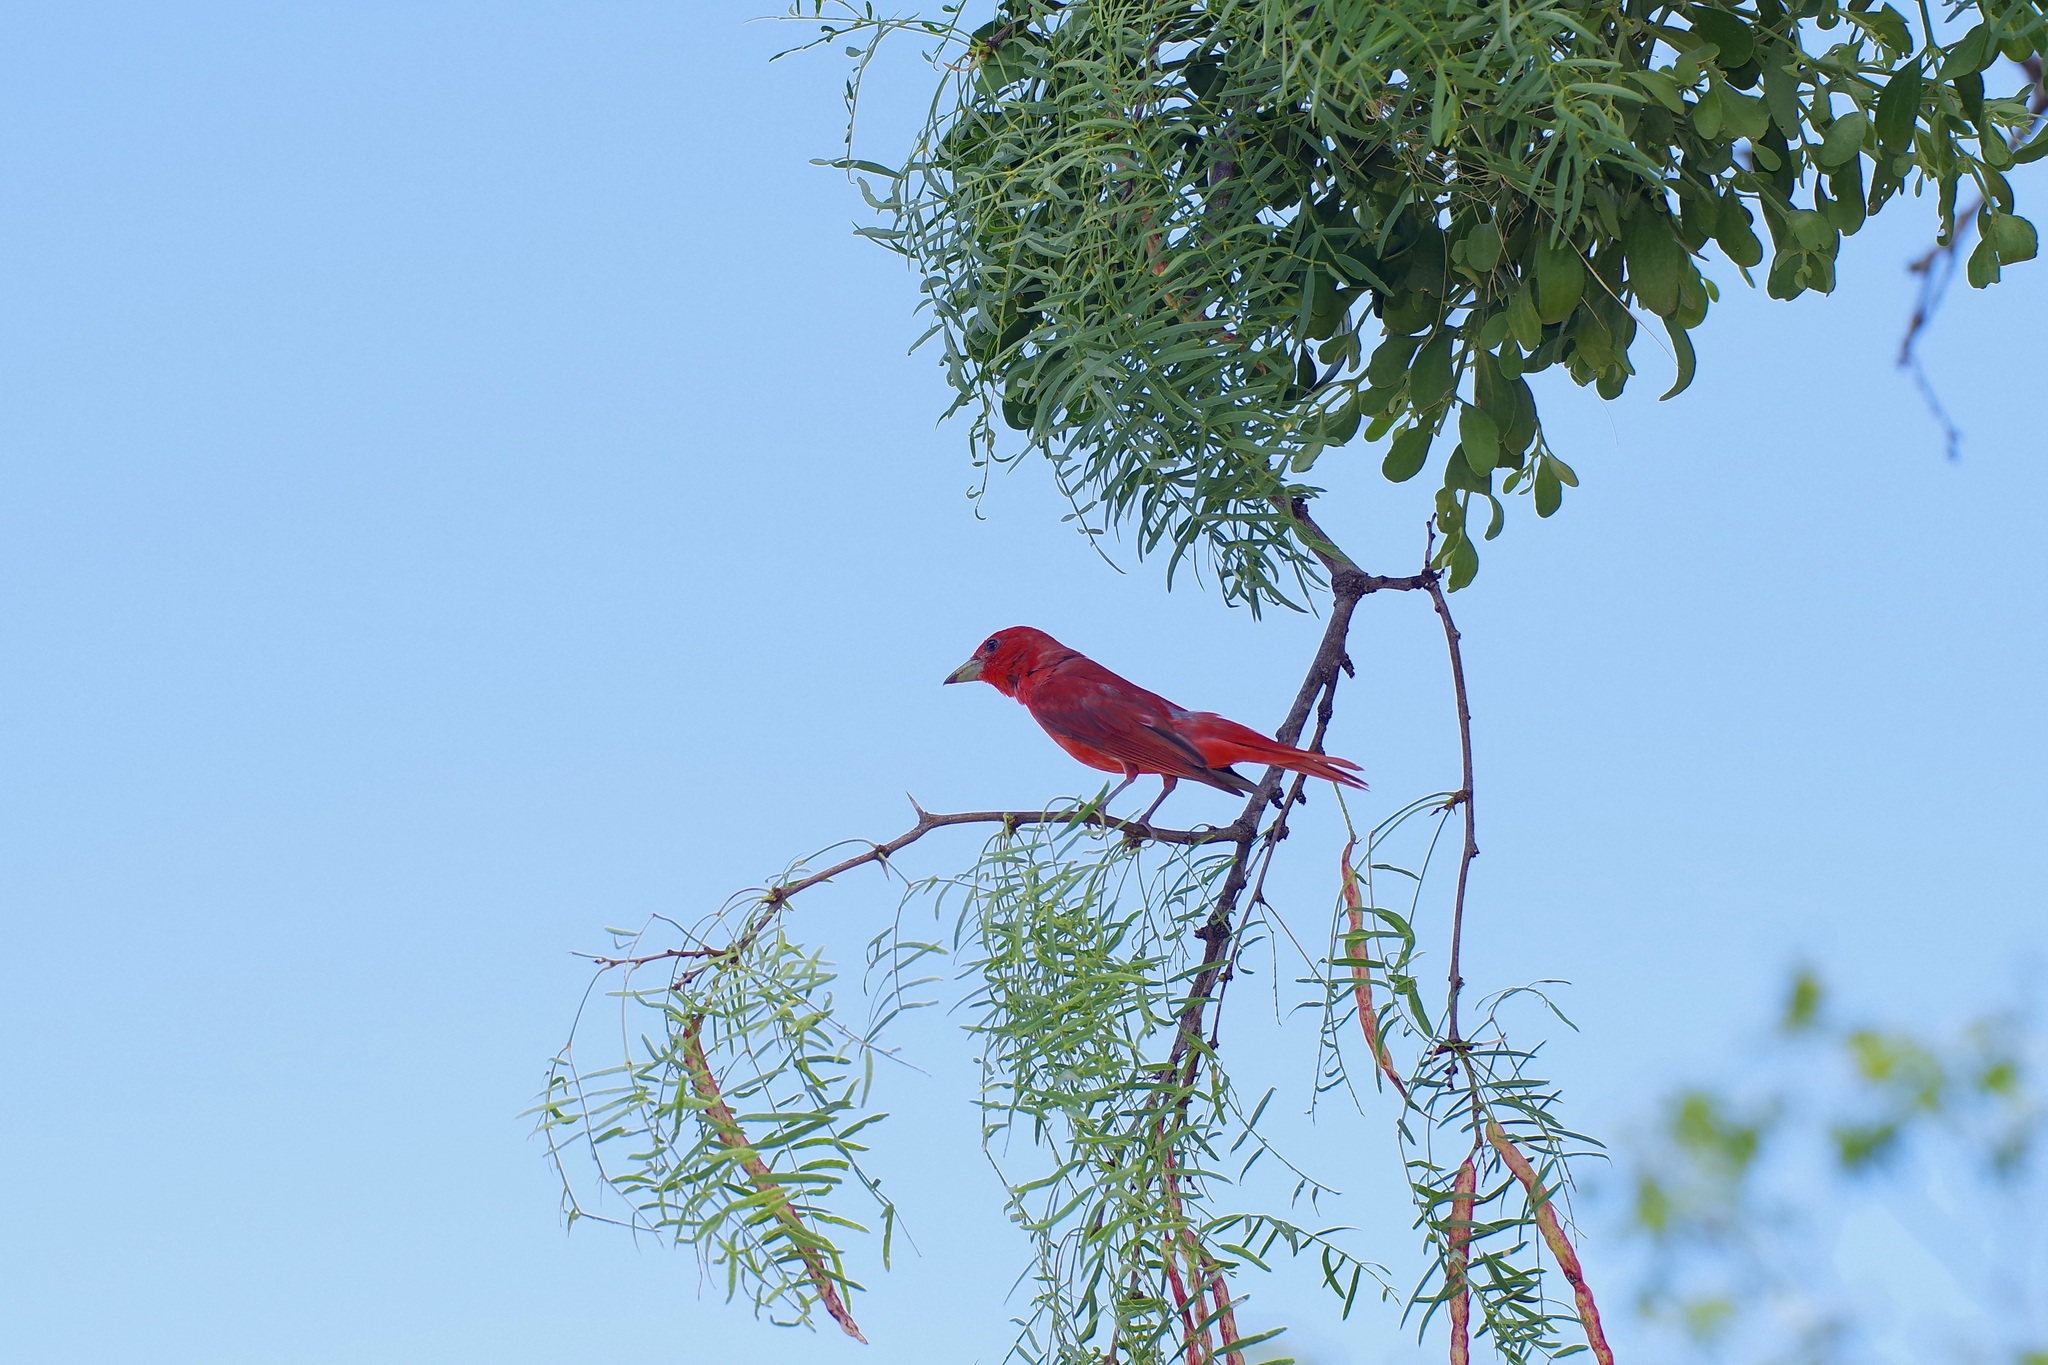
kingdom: Animalia
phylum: Chordata
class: Aves
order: Passeriformes
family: Cardinalidae
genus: Piranga
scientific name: Piranga rubra
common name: Summer tanager
